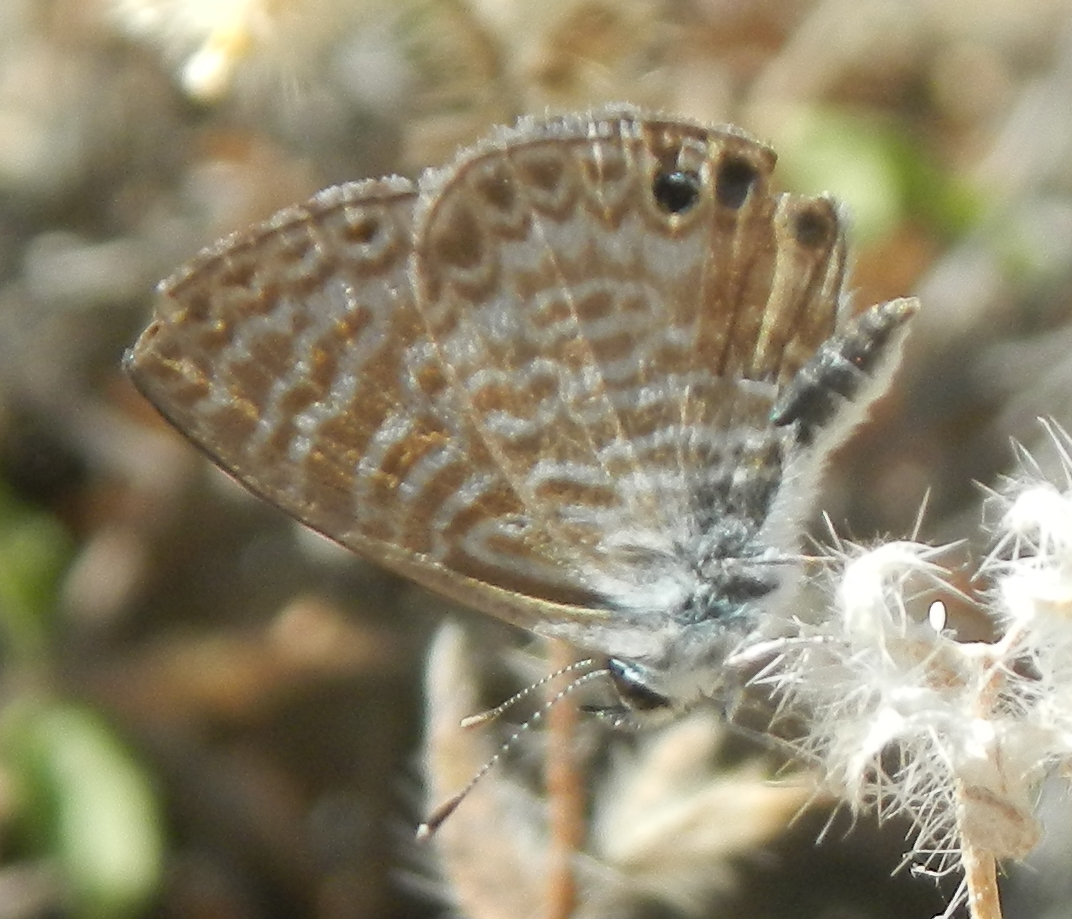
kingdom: Animalia
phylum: Arthropoda
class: Insecta
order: Lepidoptera
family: Lycaenidae
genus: Leptotes
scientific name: Leptotes marina
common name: Marine blue
